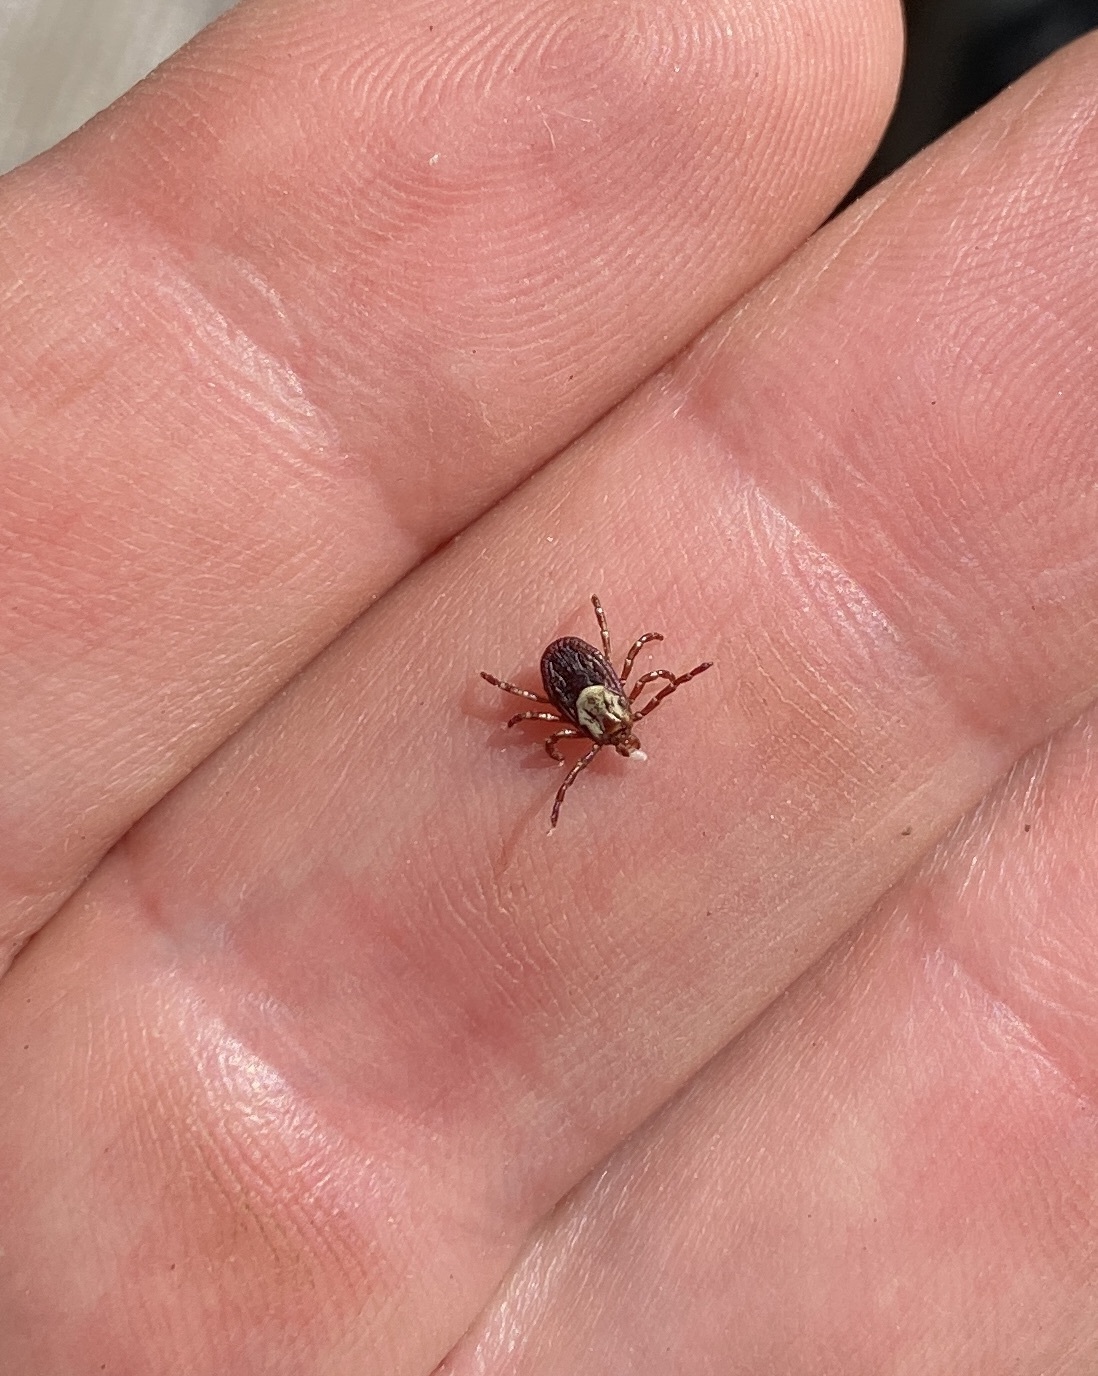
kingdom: Animalia
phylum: Arthropoda
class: Arachnida
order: Ixodida
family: Ixodidae
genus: Dermacentor
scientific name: Dermacentor variabilis
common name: American dog tick
